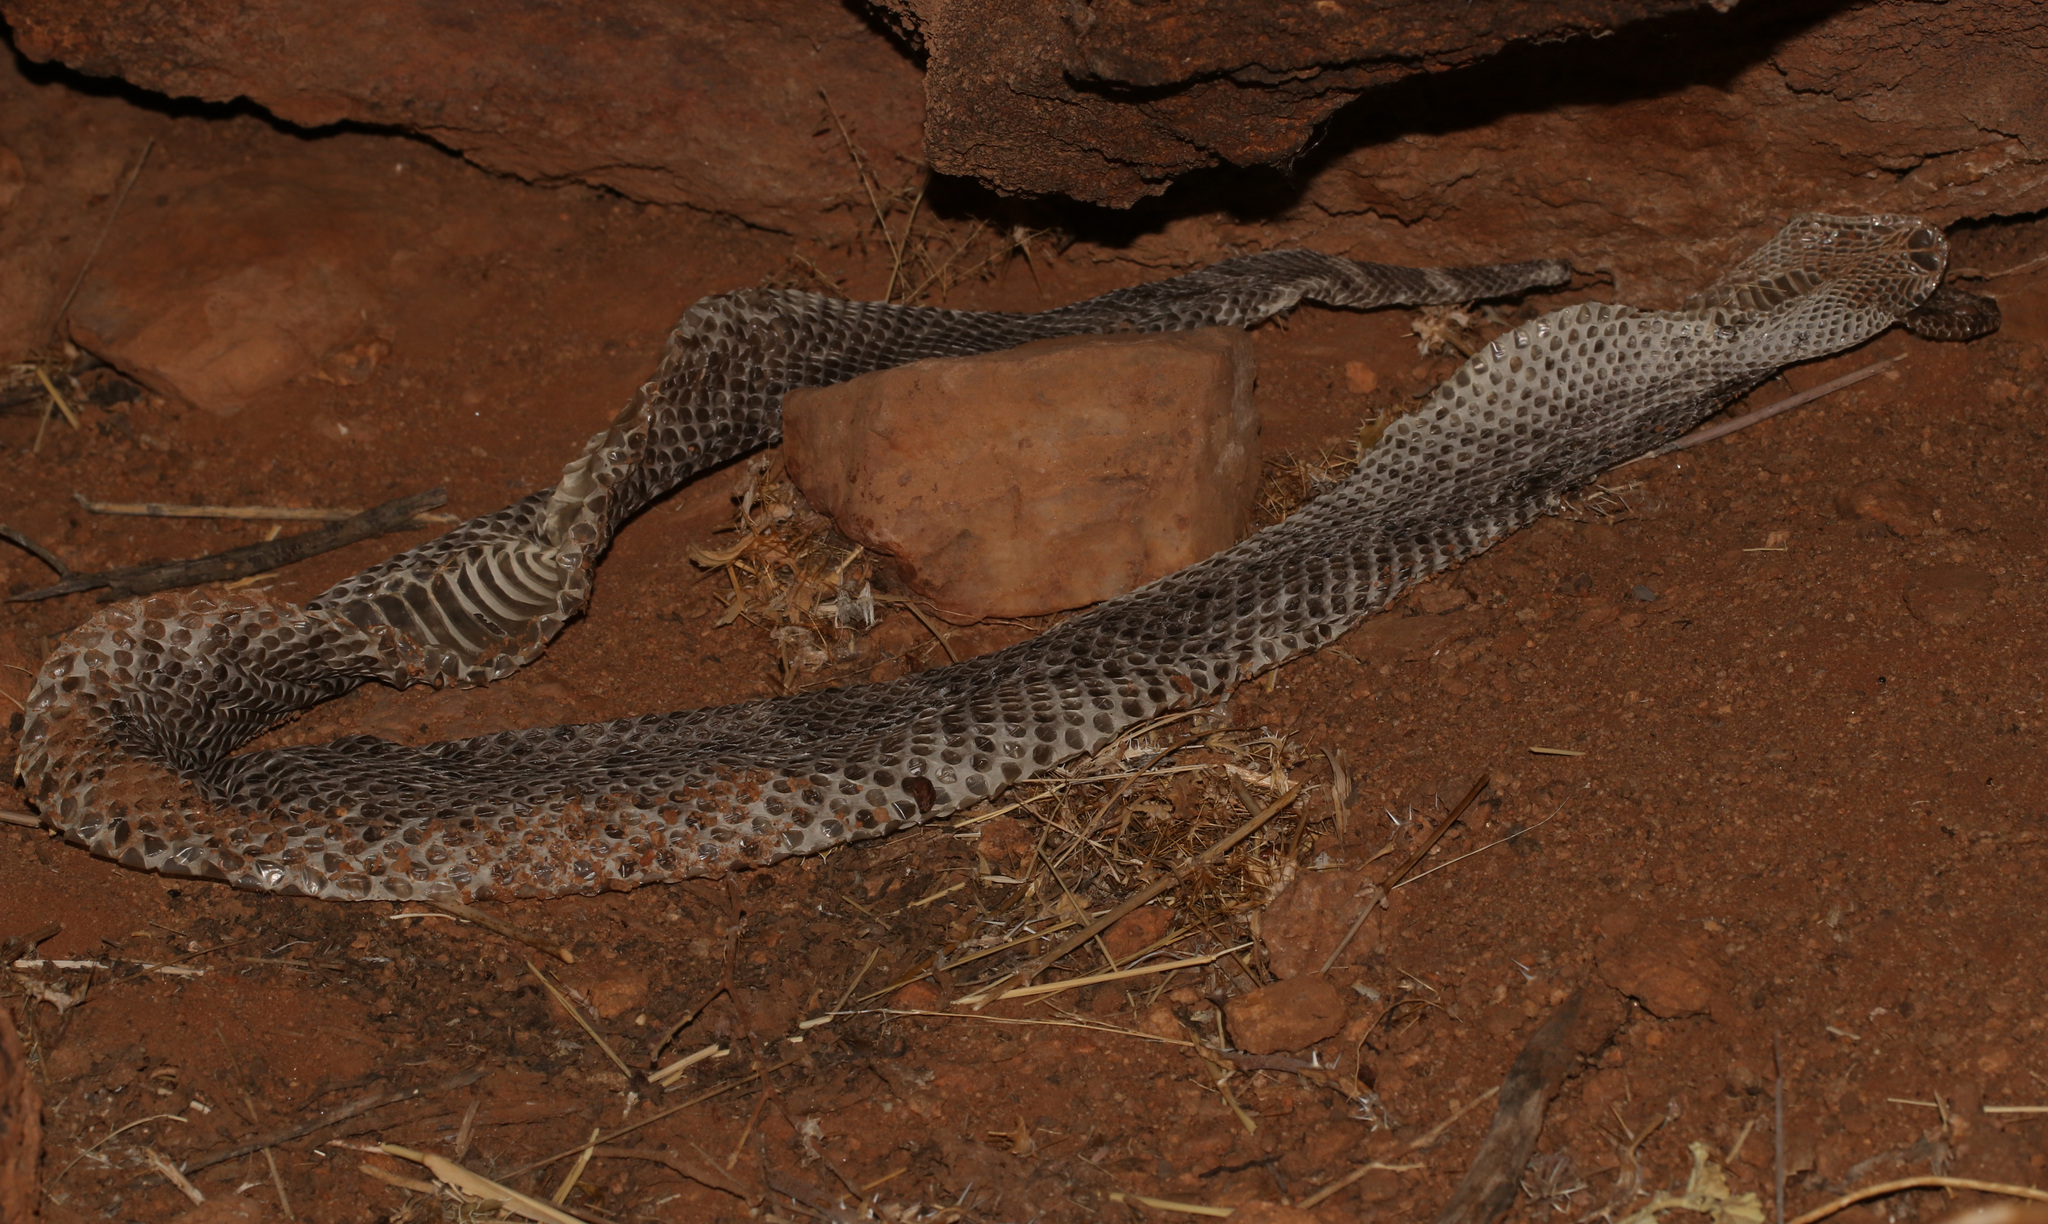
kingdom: Animalia
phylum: Chordata
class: Squamata
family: Viperidae
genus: Bitis
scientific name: Bitis arietans
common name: Puff adder
